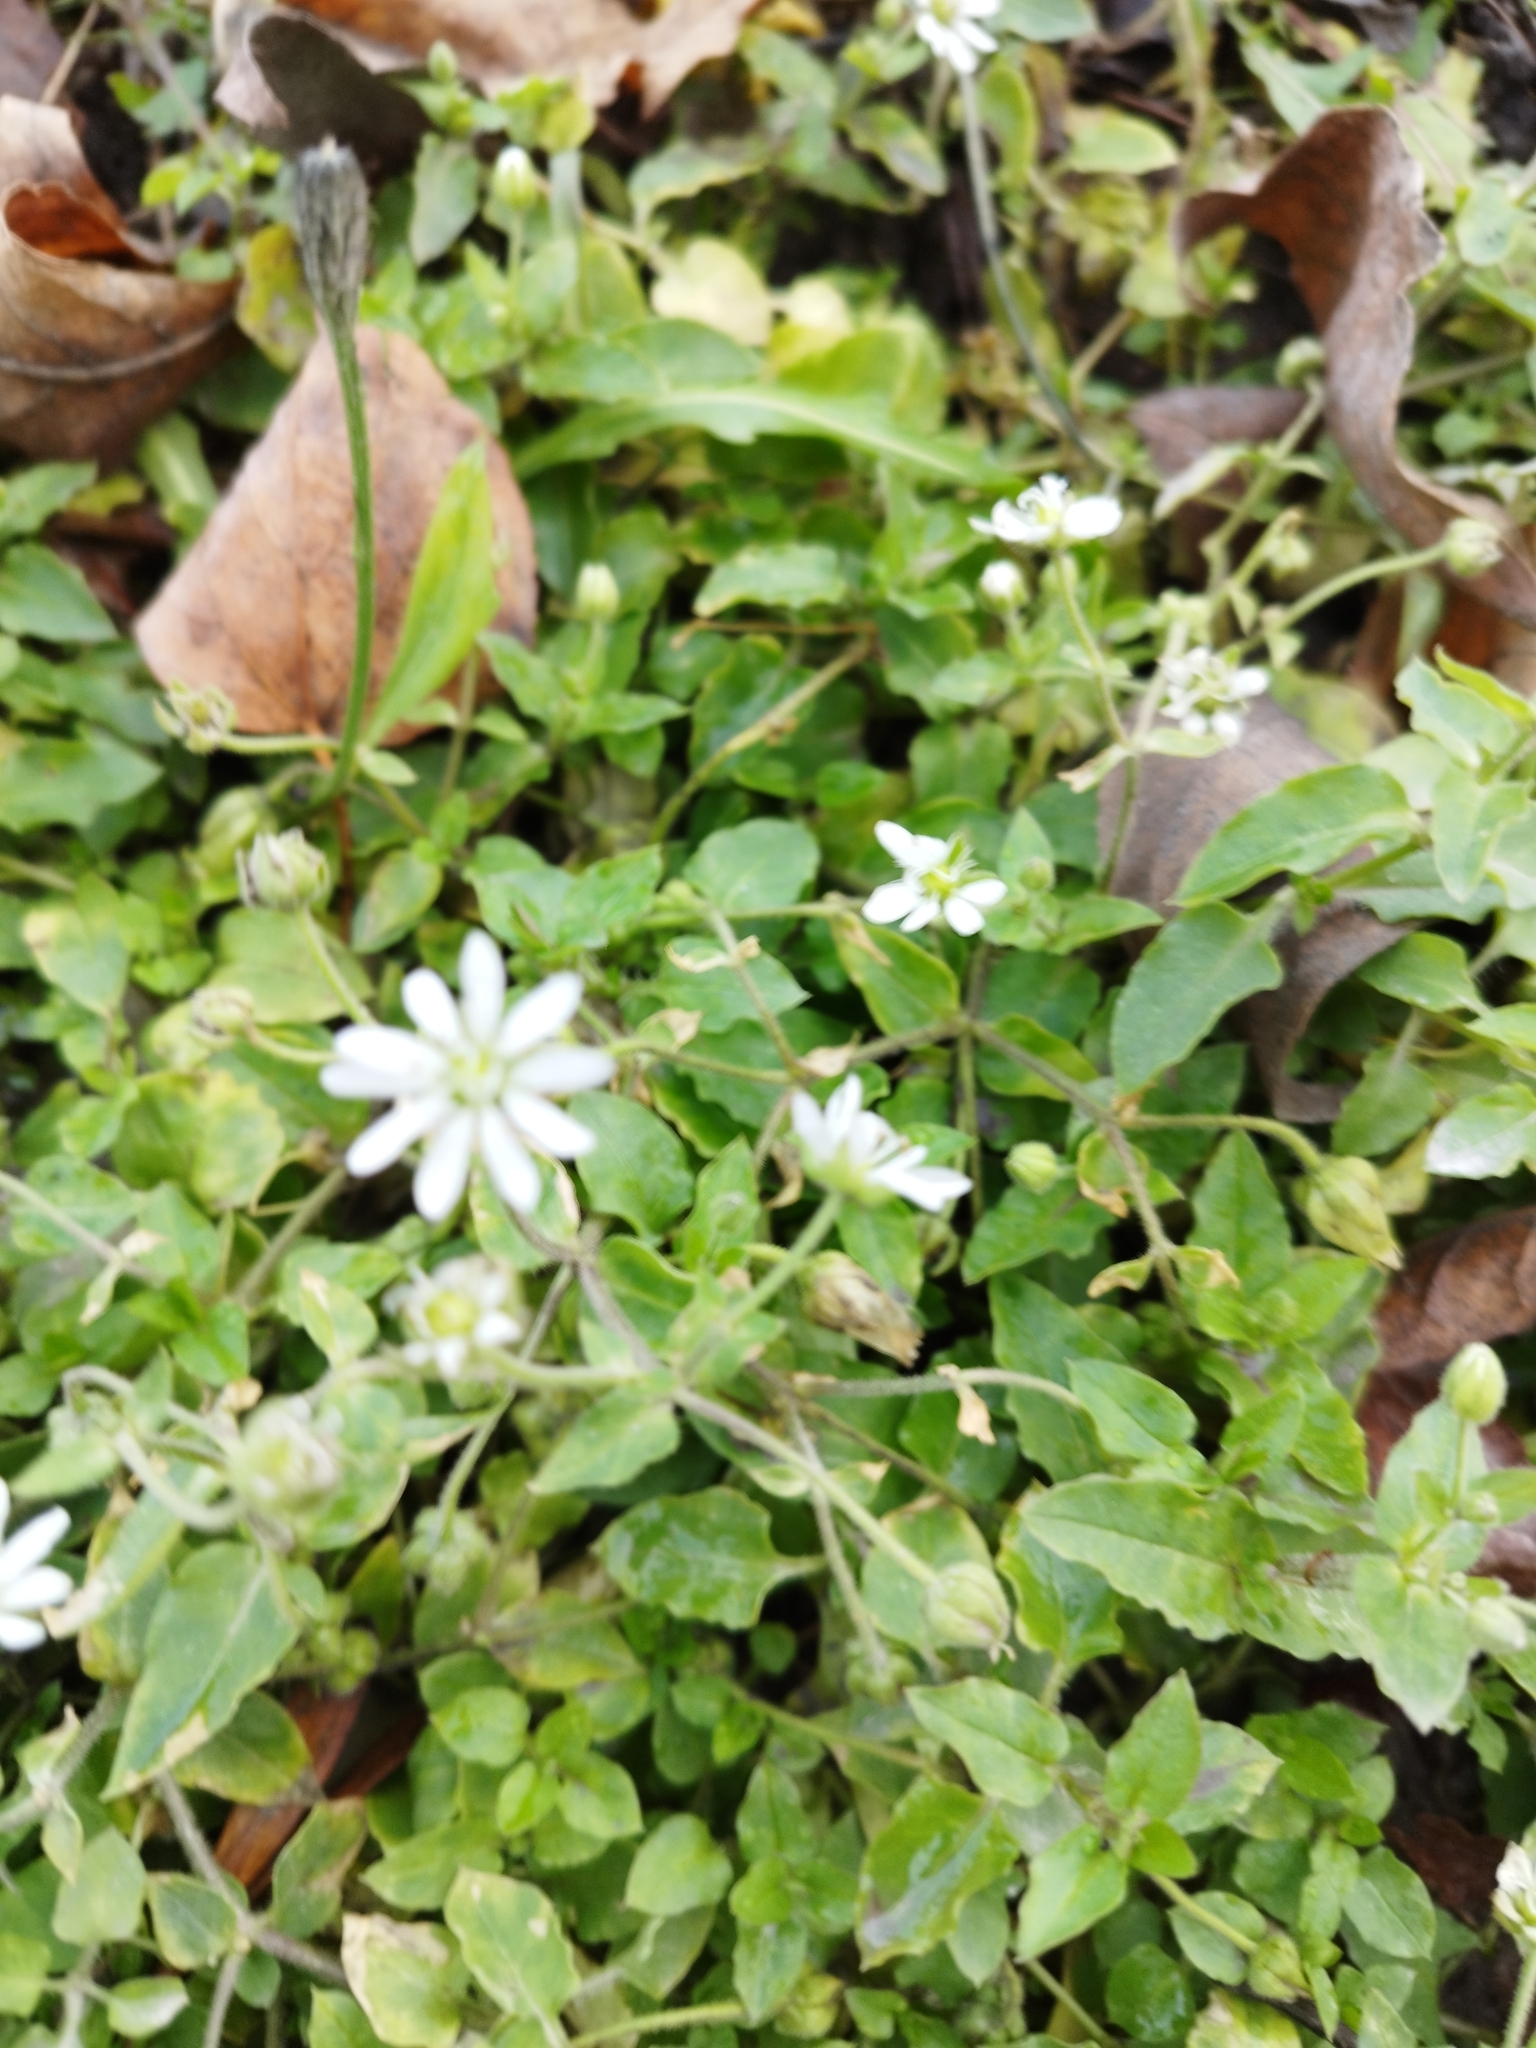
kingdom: Plantae
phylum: Tracheophyta
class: Magnoliopsida
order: Caryophyllales
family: Caryophyllaceae
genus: Stellaria
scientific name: Stellaria aquatica
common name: Water chickweed
